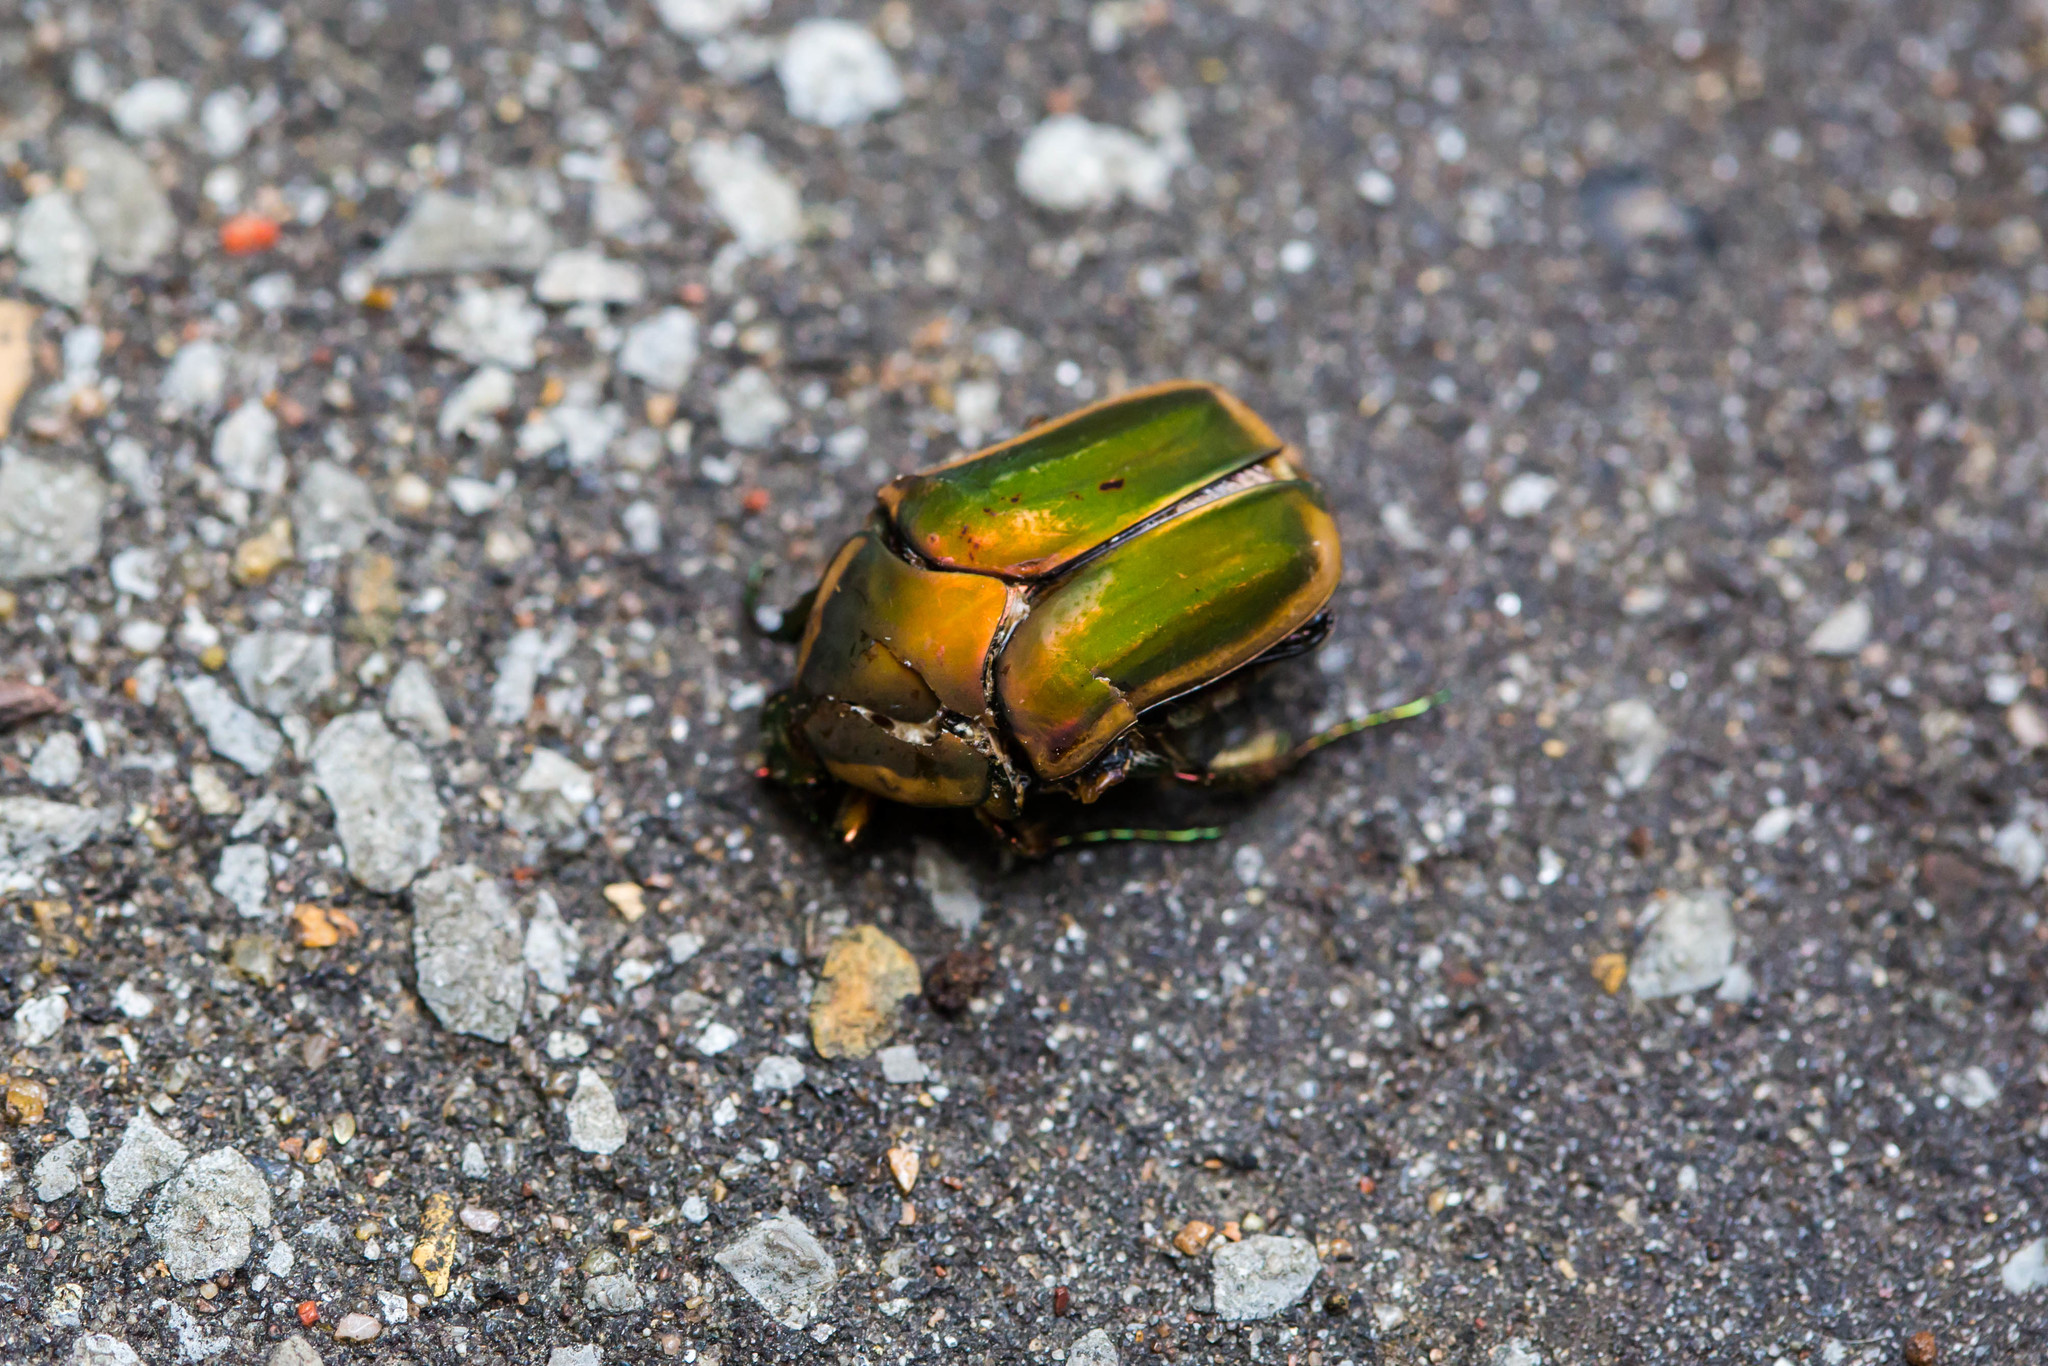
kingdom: Animalia
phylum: Arthropoda
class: Insecta
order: Coleoptera
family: Scarabaeidae
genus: Cotinis
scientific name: Cotinis nitida
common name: Common green june beetle
